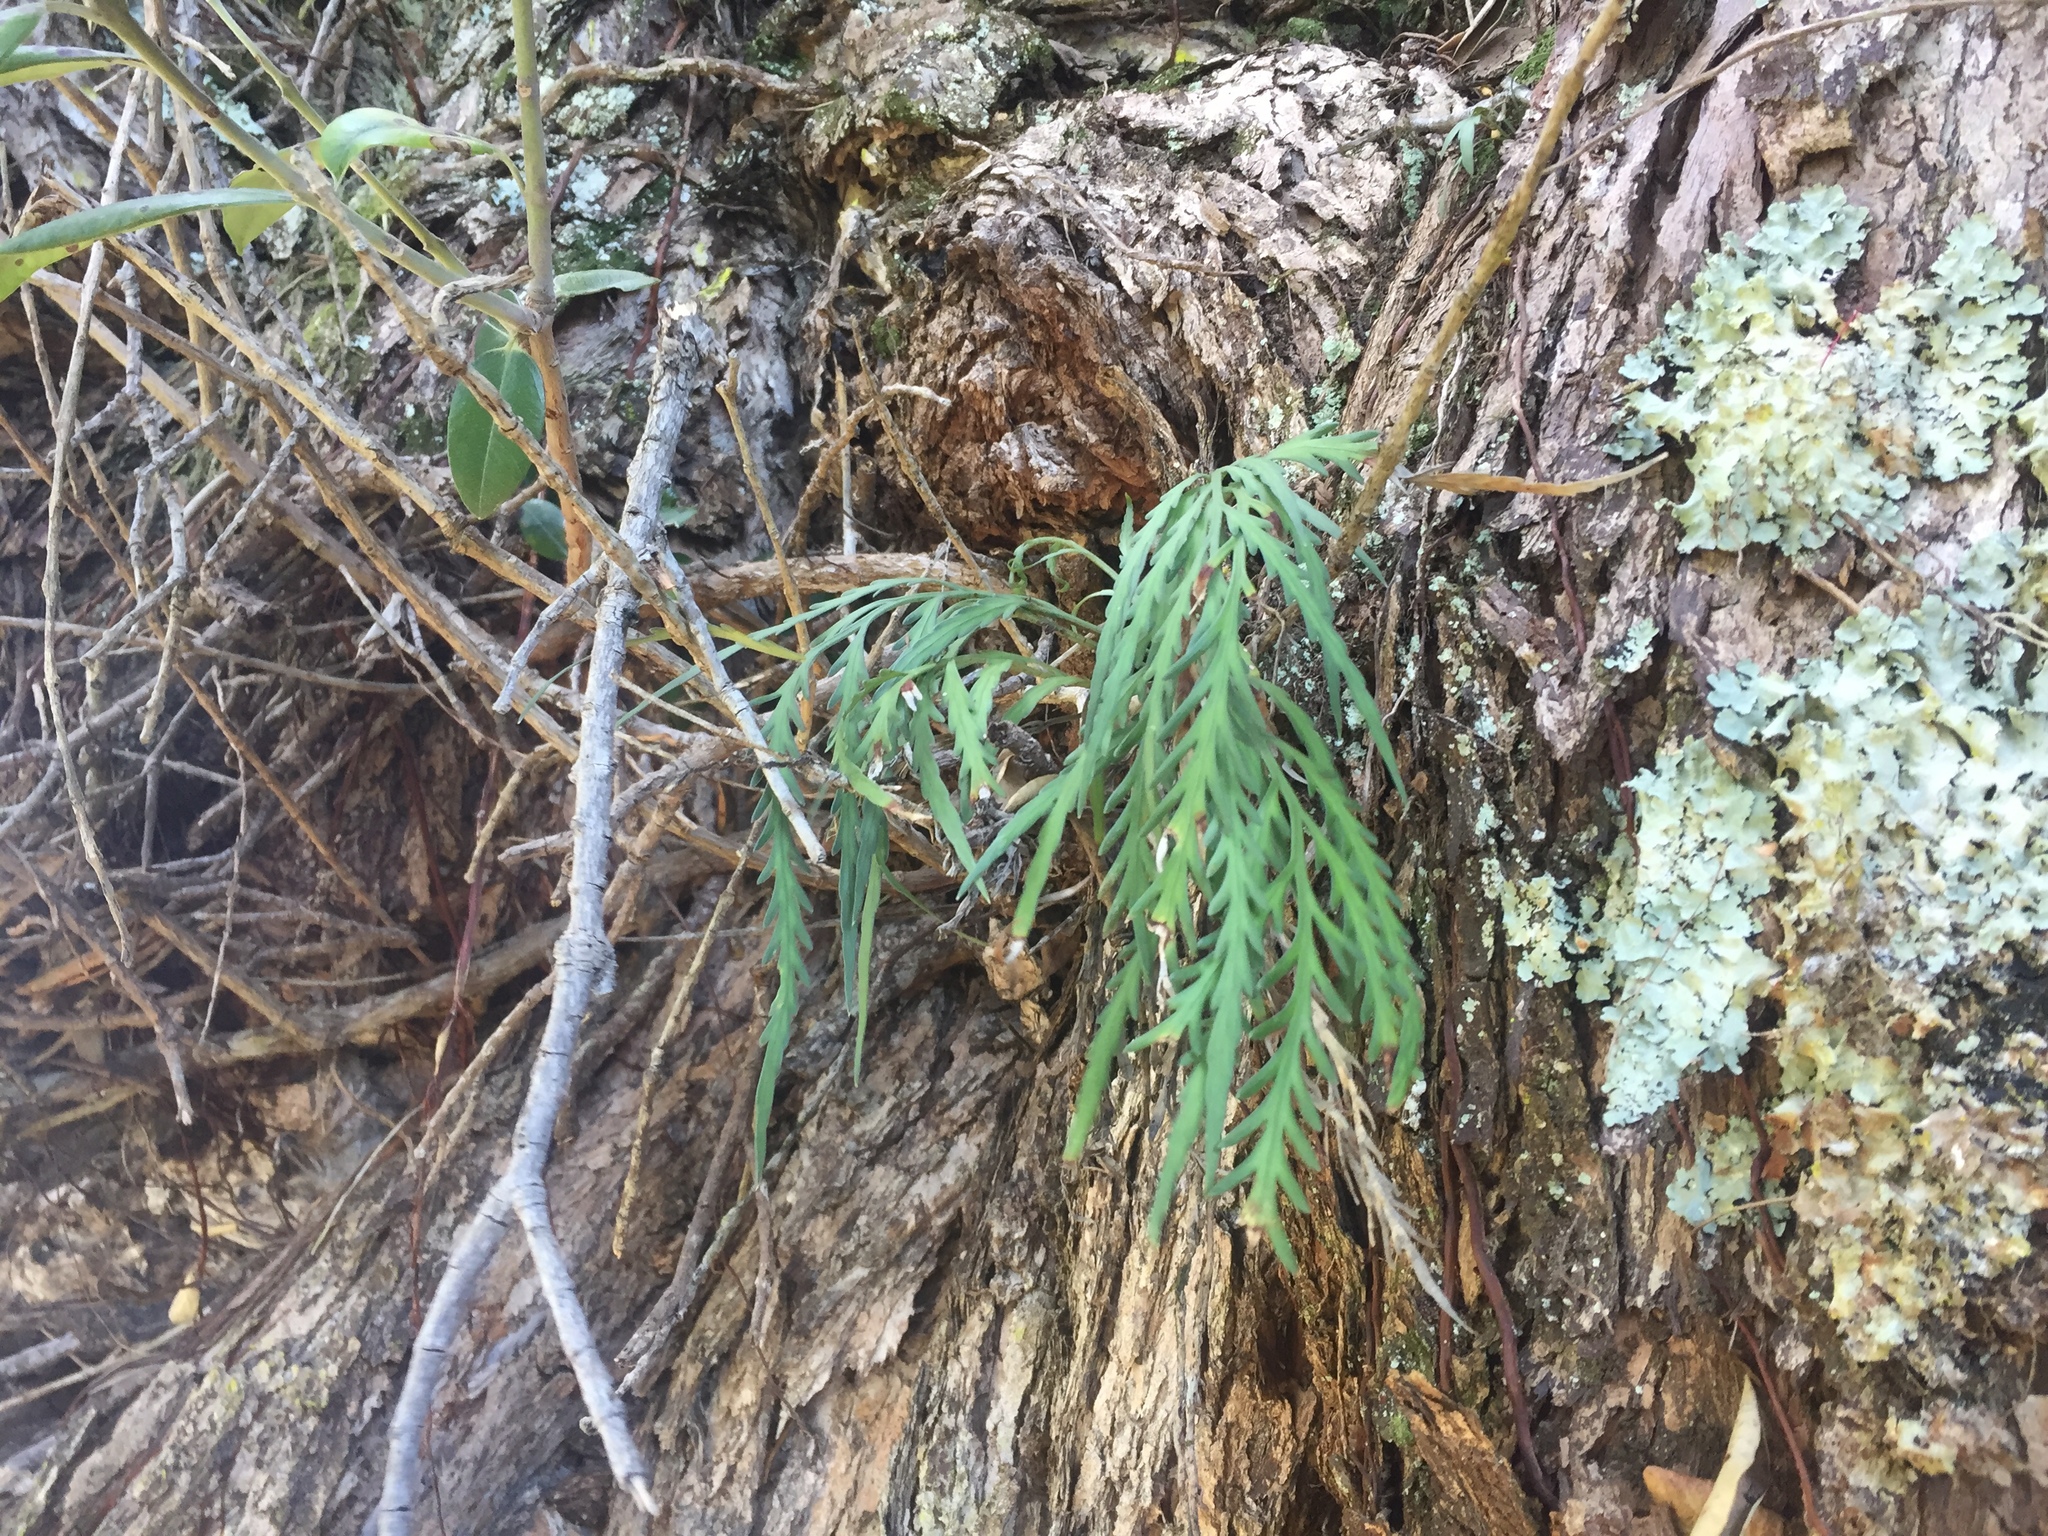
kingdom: Plantae
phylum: Tracheophyta
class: Polypodiopsida
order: Polypodiales
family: Aspleniaceae
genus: Asplenium
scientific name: Asplenium flaccidum
